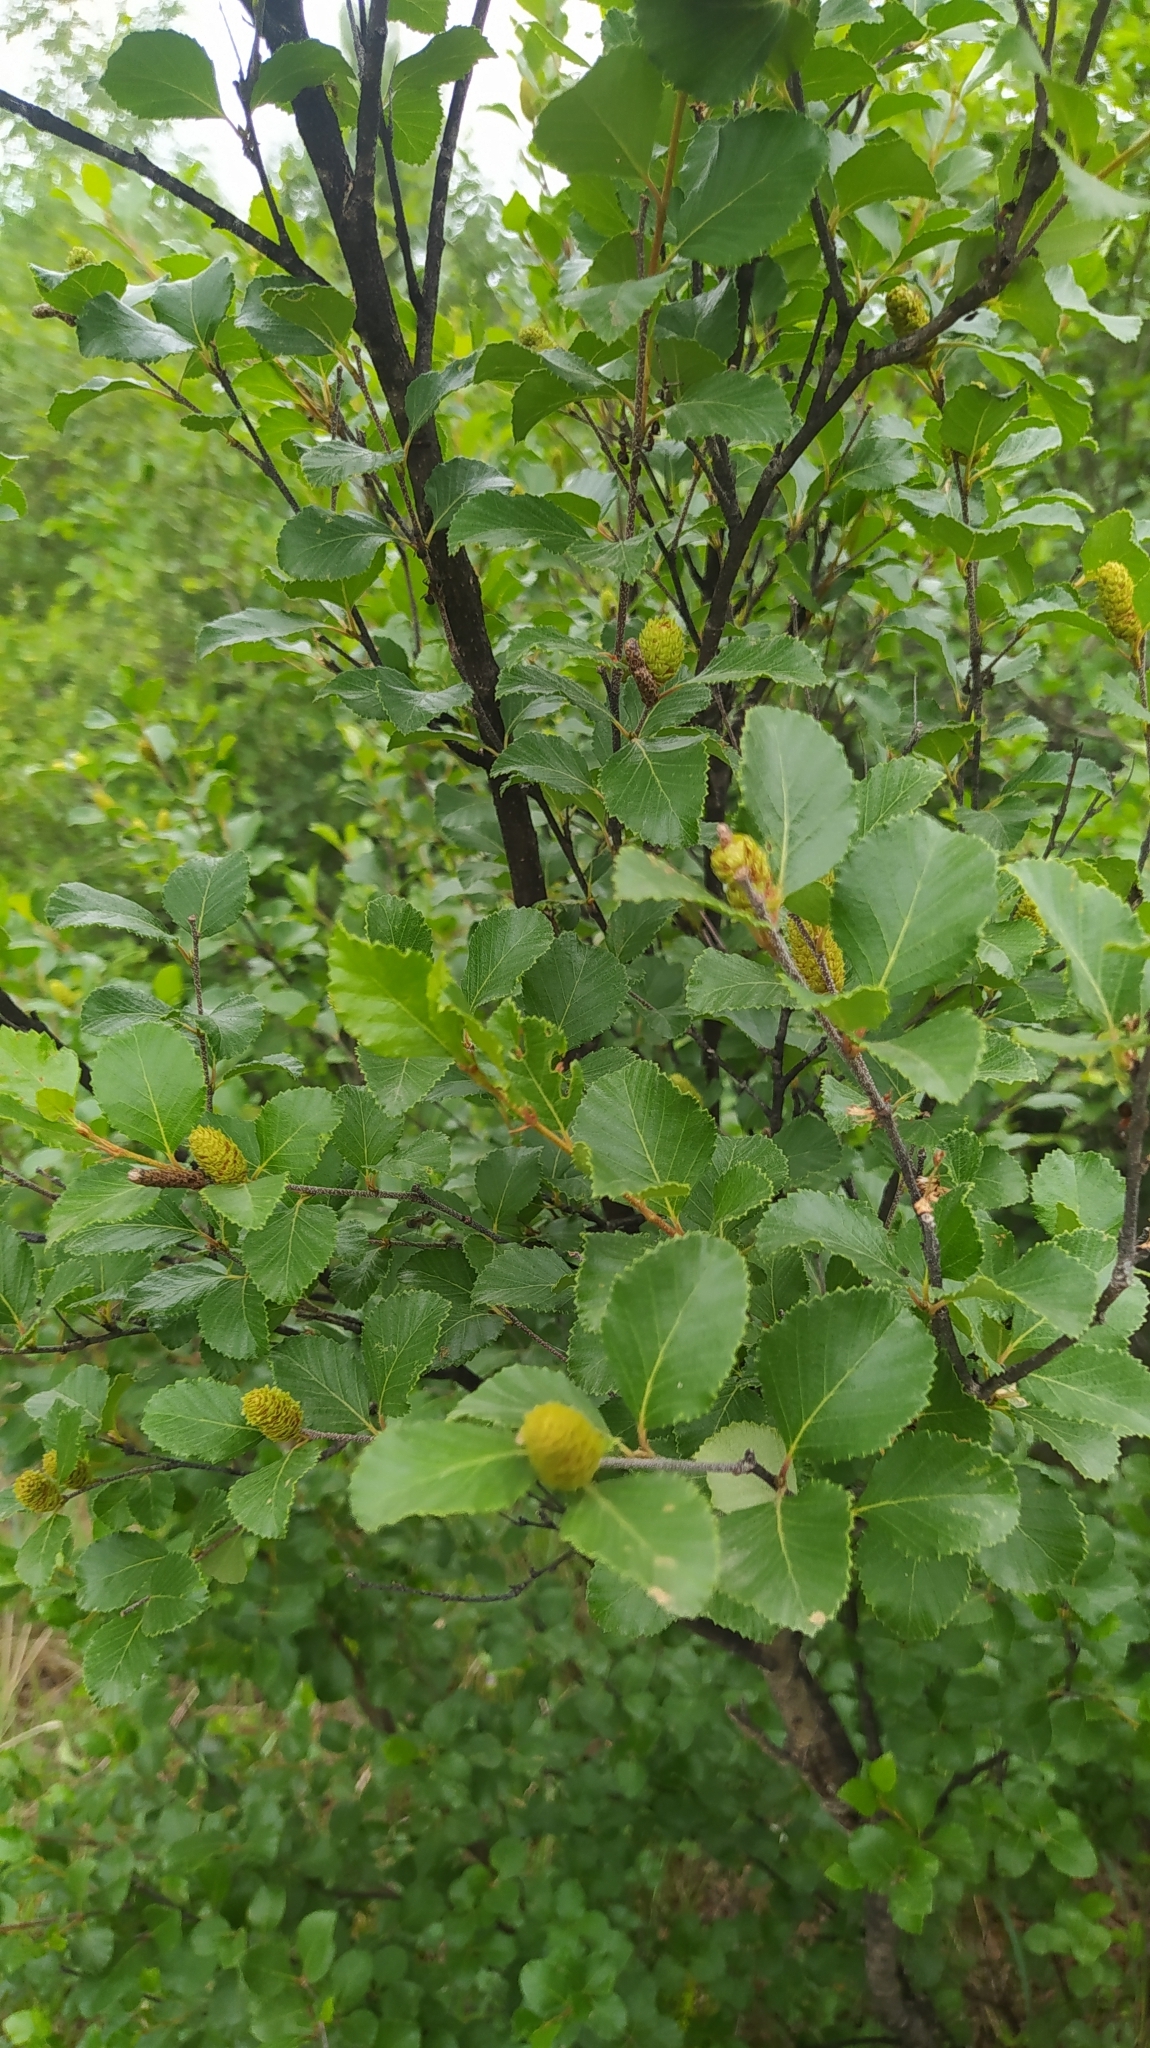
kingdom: Plantae
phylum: Tracheophyta
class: Magnoliopsida
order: Fagales
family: Betulaceae
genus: Betula
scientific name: Betula fruticosa
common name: Japanese bog birch
